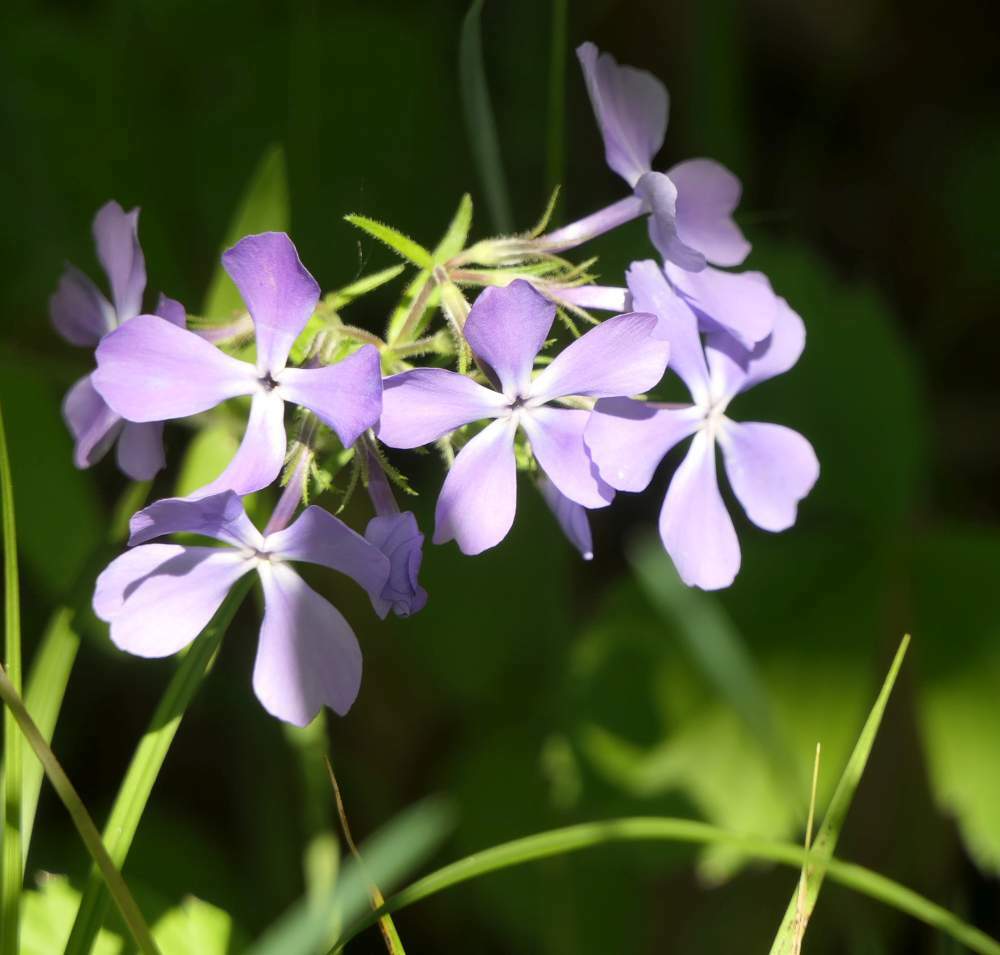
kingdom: Plantae
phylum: Tracheophyta
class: Magnoliopsida
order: Ericales
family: Polemoniaceae
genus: Phlox
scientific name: Phlox divaricata
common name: Blue phlox
